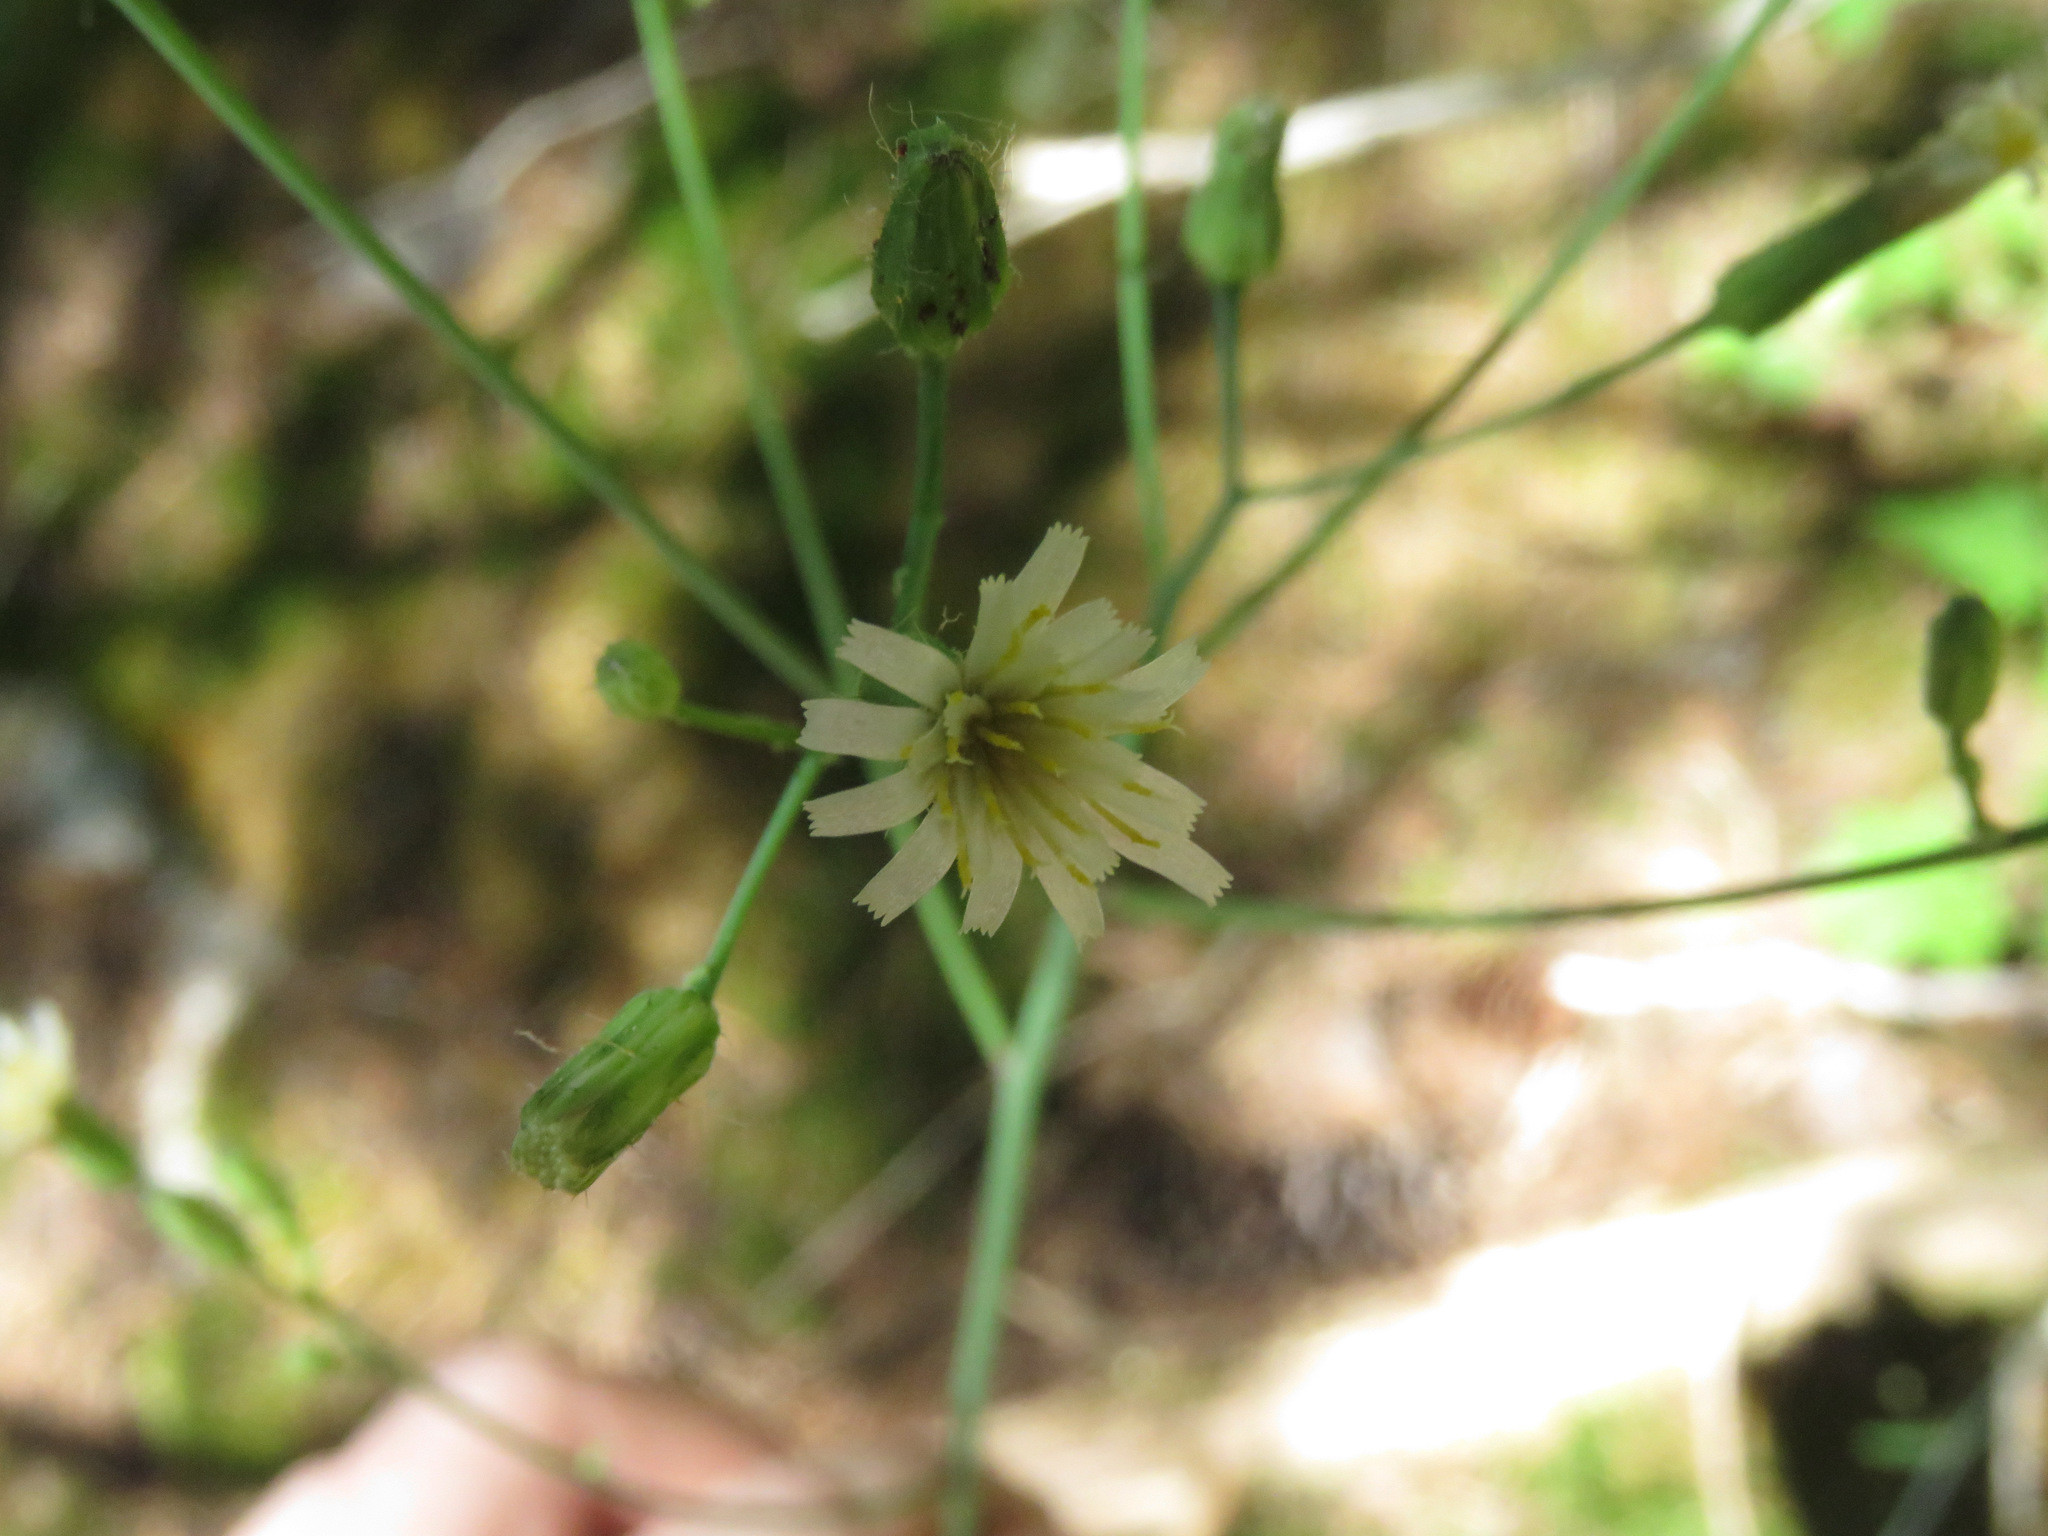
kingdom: Plantae
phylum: Tracheophyta
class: Magnoliopsida
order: Asterales
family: Asteraceae
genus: Hieracium
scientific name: Hieracium albiflorum
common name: White hawkweed
